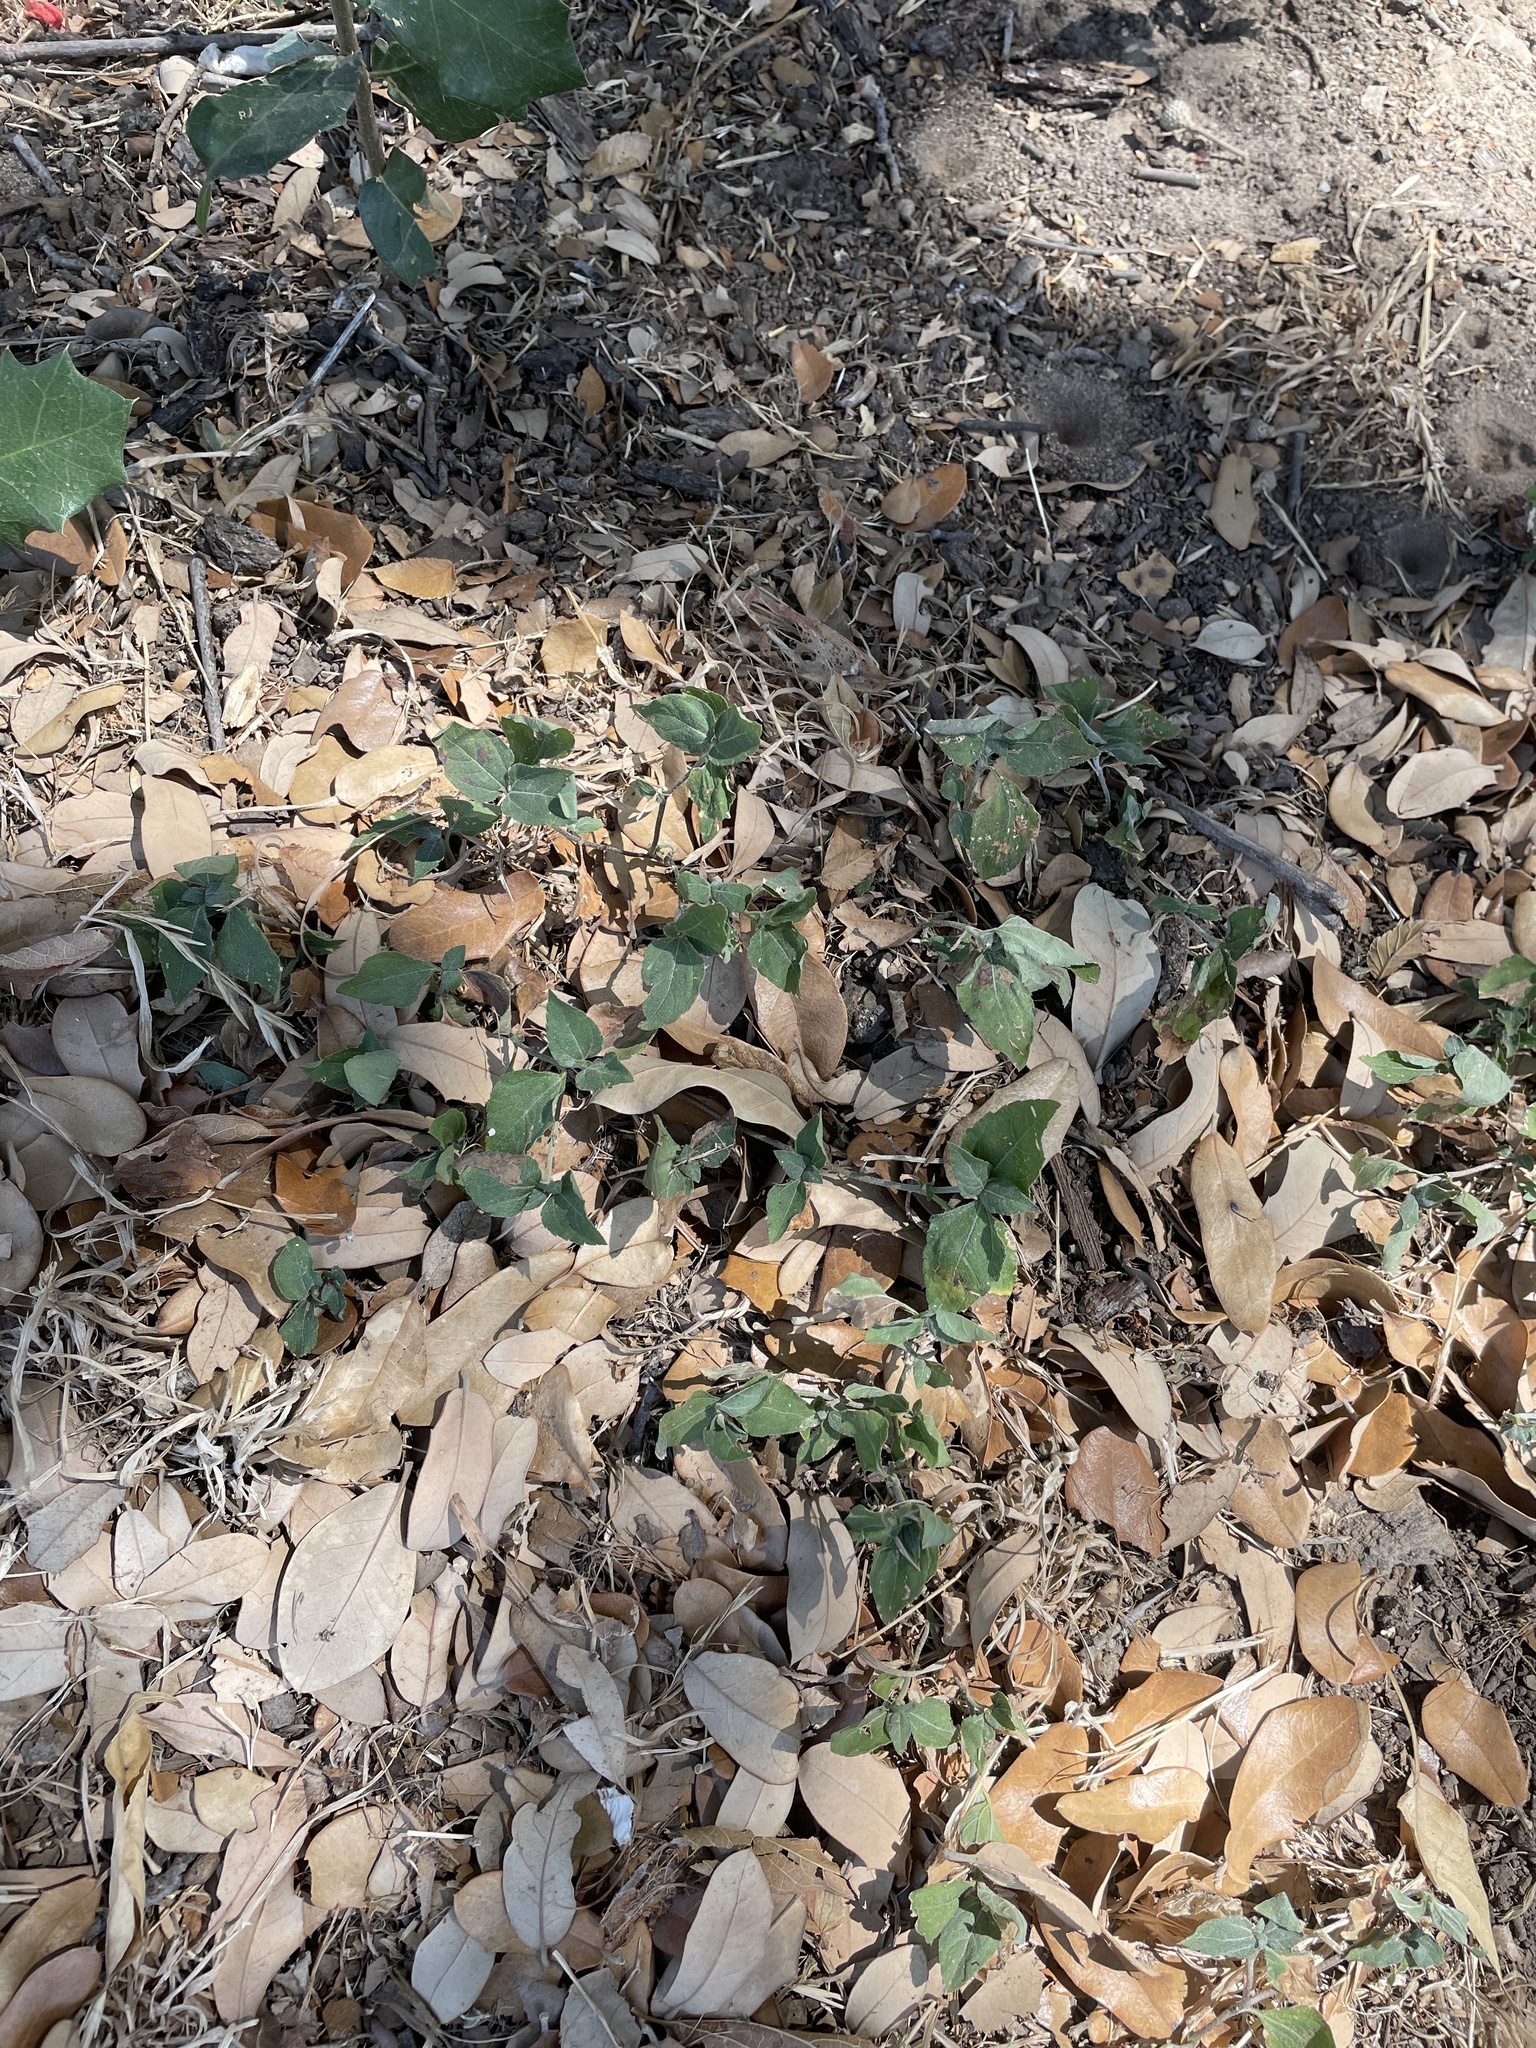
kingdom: Plantae
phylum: Tracheophyta
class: Magnoliopsida
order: Asterales
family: Asteraceae
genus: Calyptocarpus
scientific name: Calyptocarpus vialis
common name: Straggler daisy
